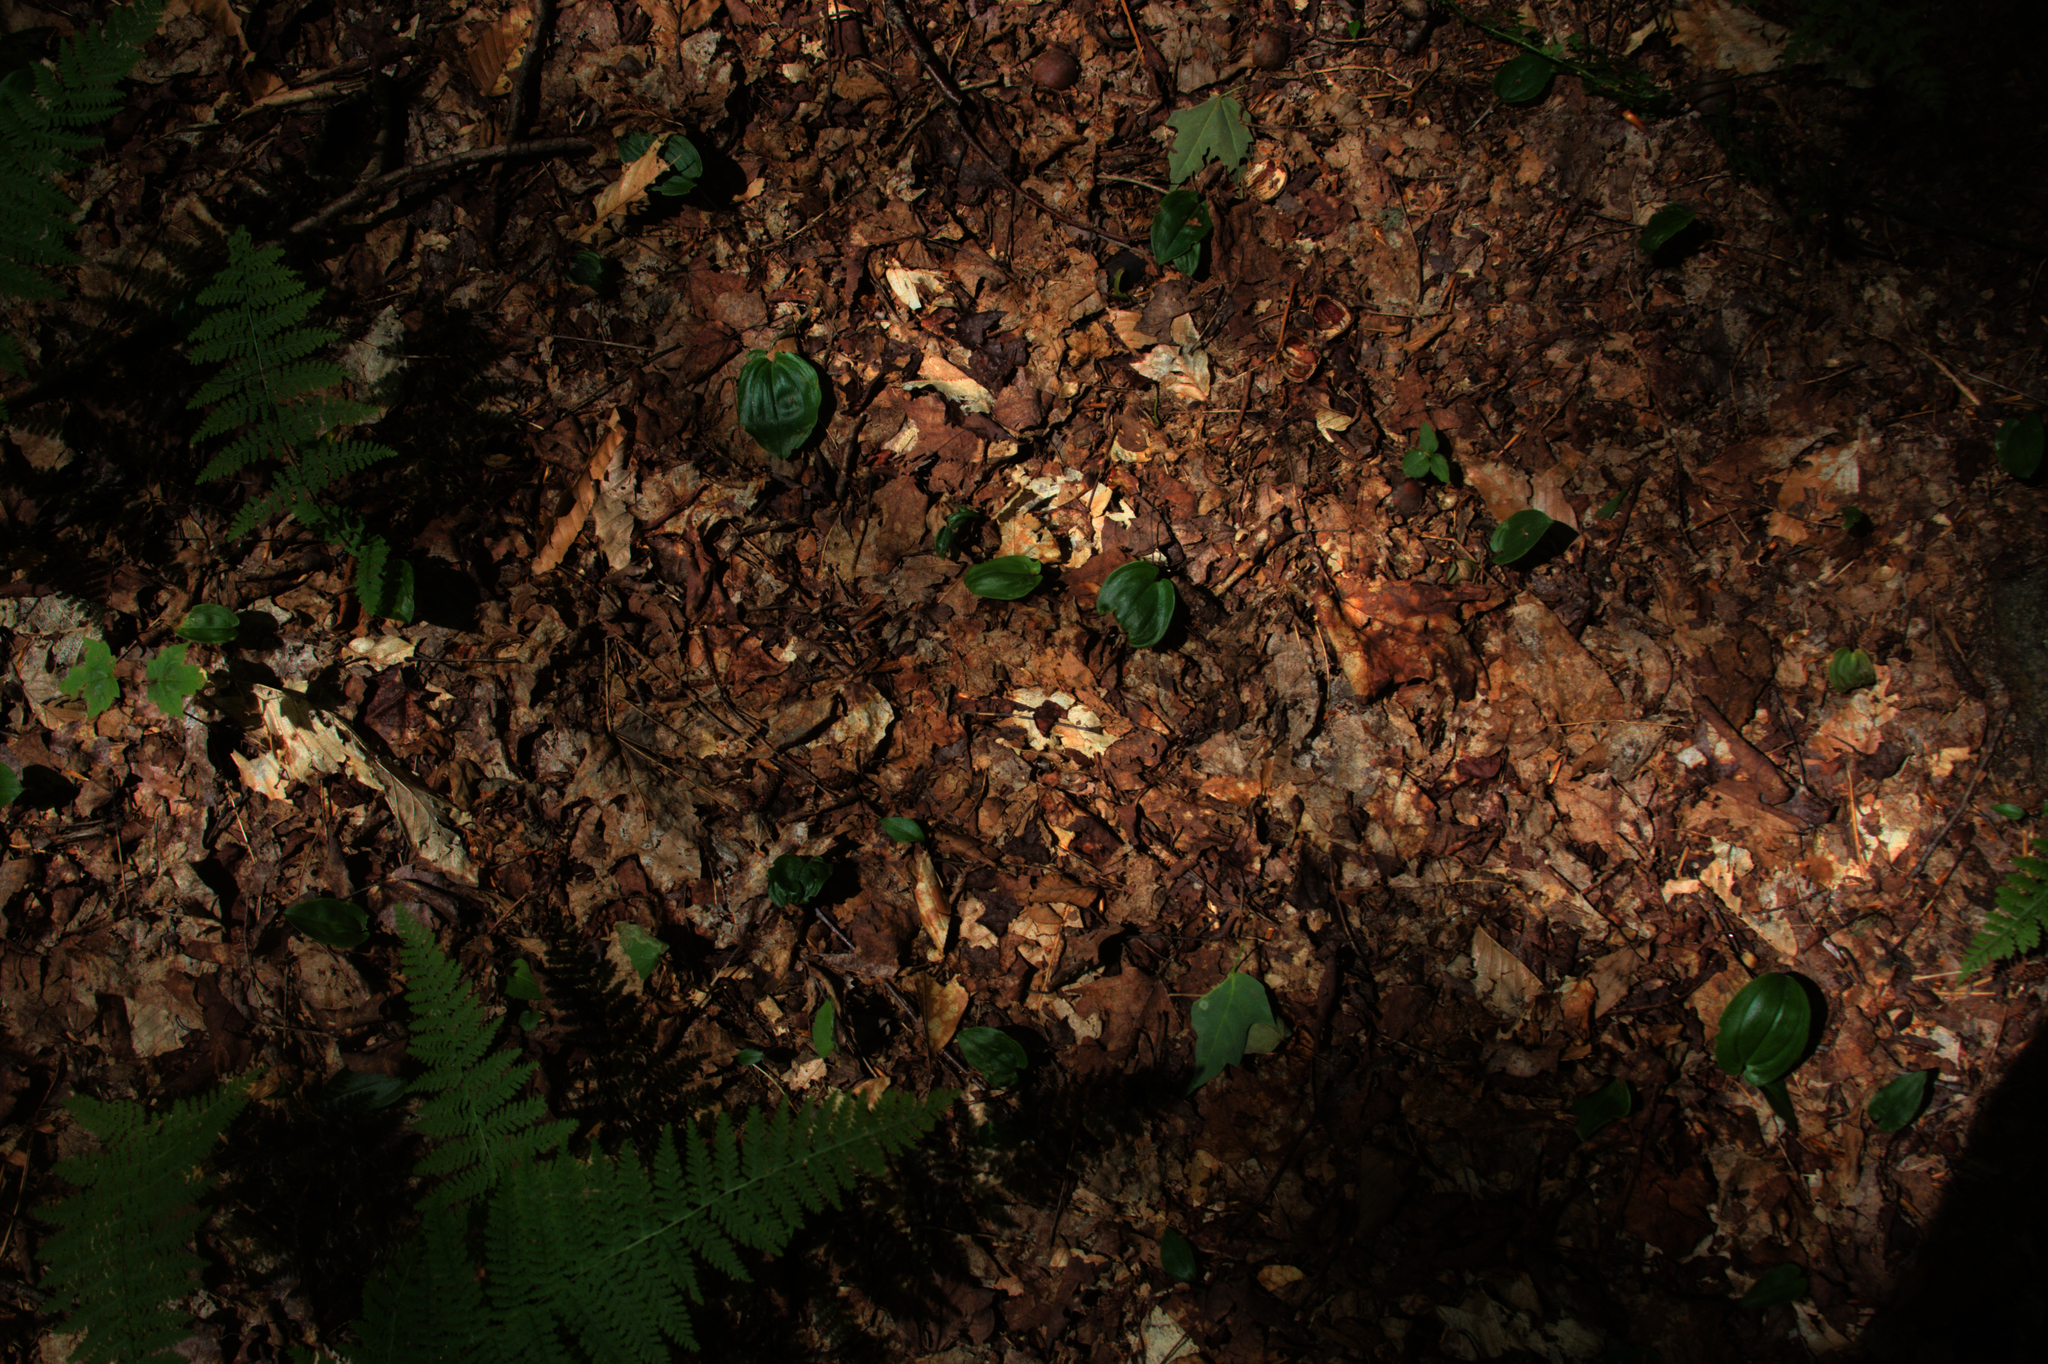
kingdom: Plantae
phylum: Tracheophyta
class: Liliopsida
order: Asparagales
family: Asparagaceae
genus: Maianthemum
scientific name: Maianthemum canadense
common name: False lily-of-the-valley
